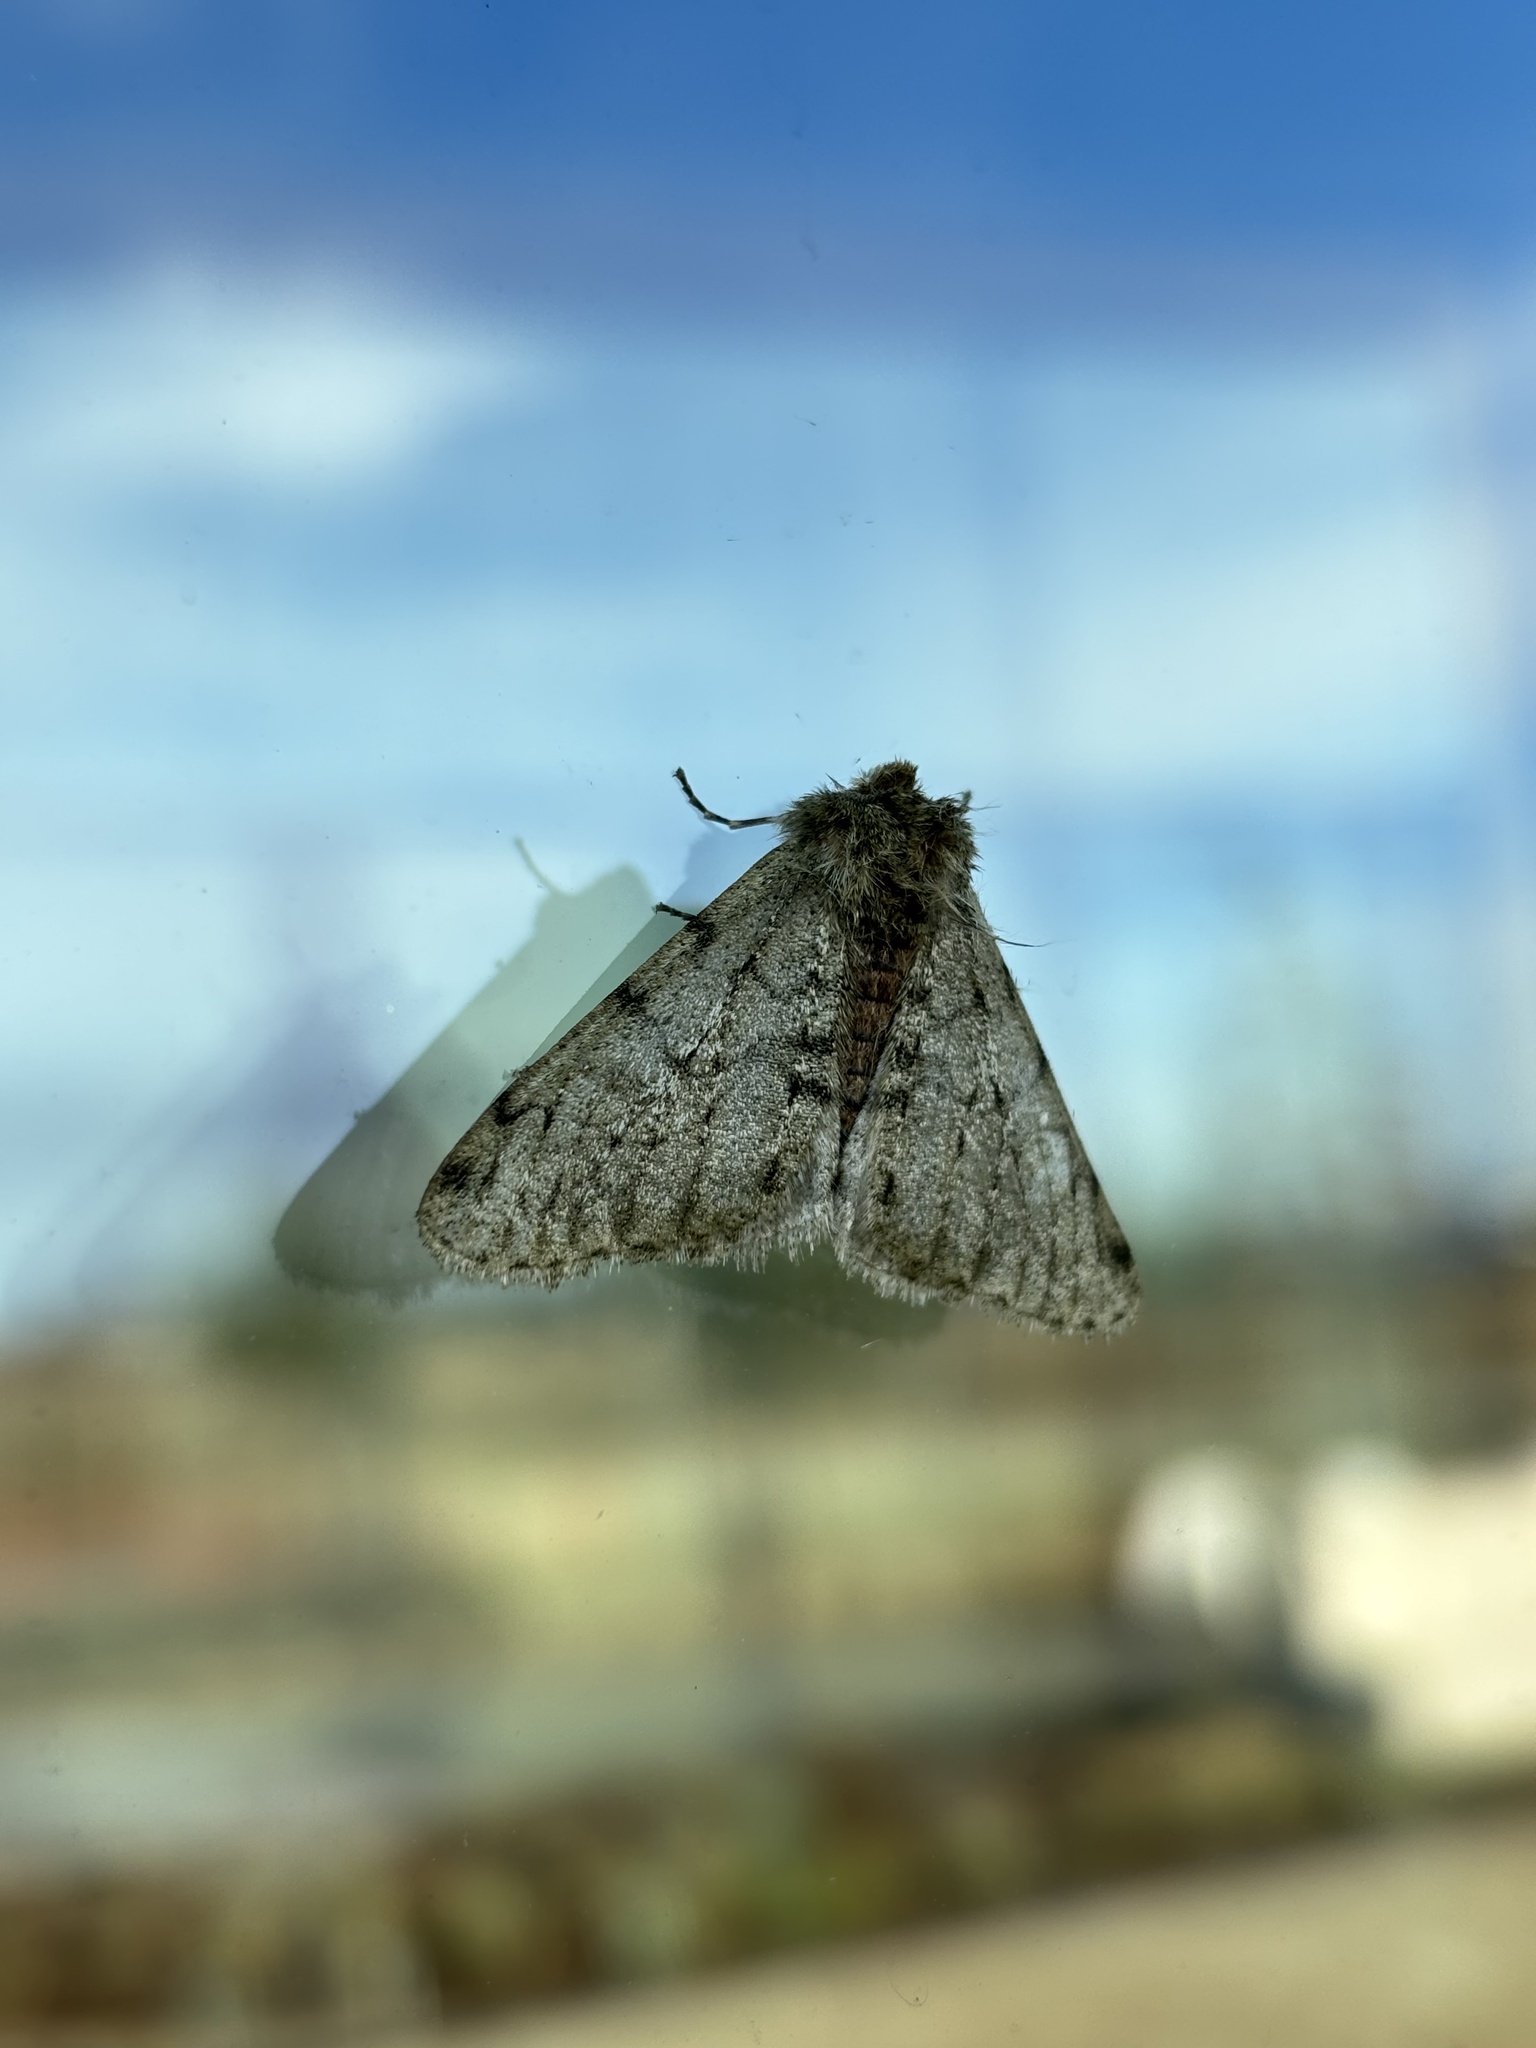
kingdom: Animalia
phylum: Arthropoda
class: Insecta
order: Lepidoptera
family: Geometridae
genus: Phigalia
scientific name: Phigalia pilosaria
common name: Pale brindled beauty
